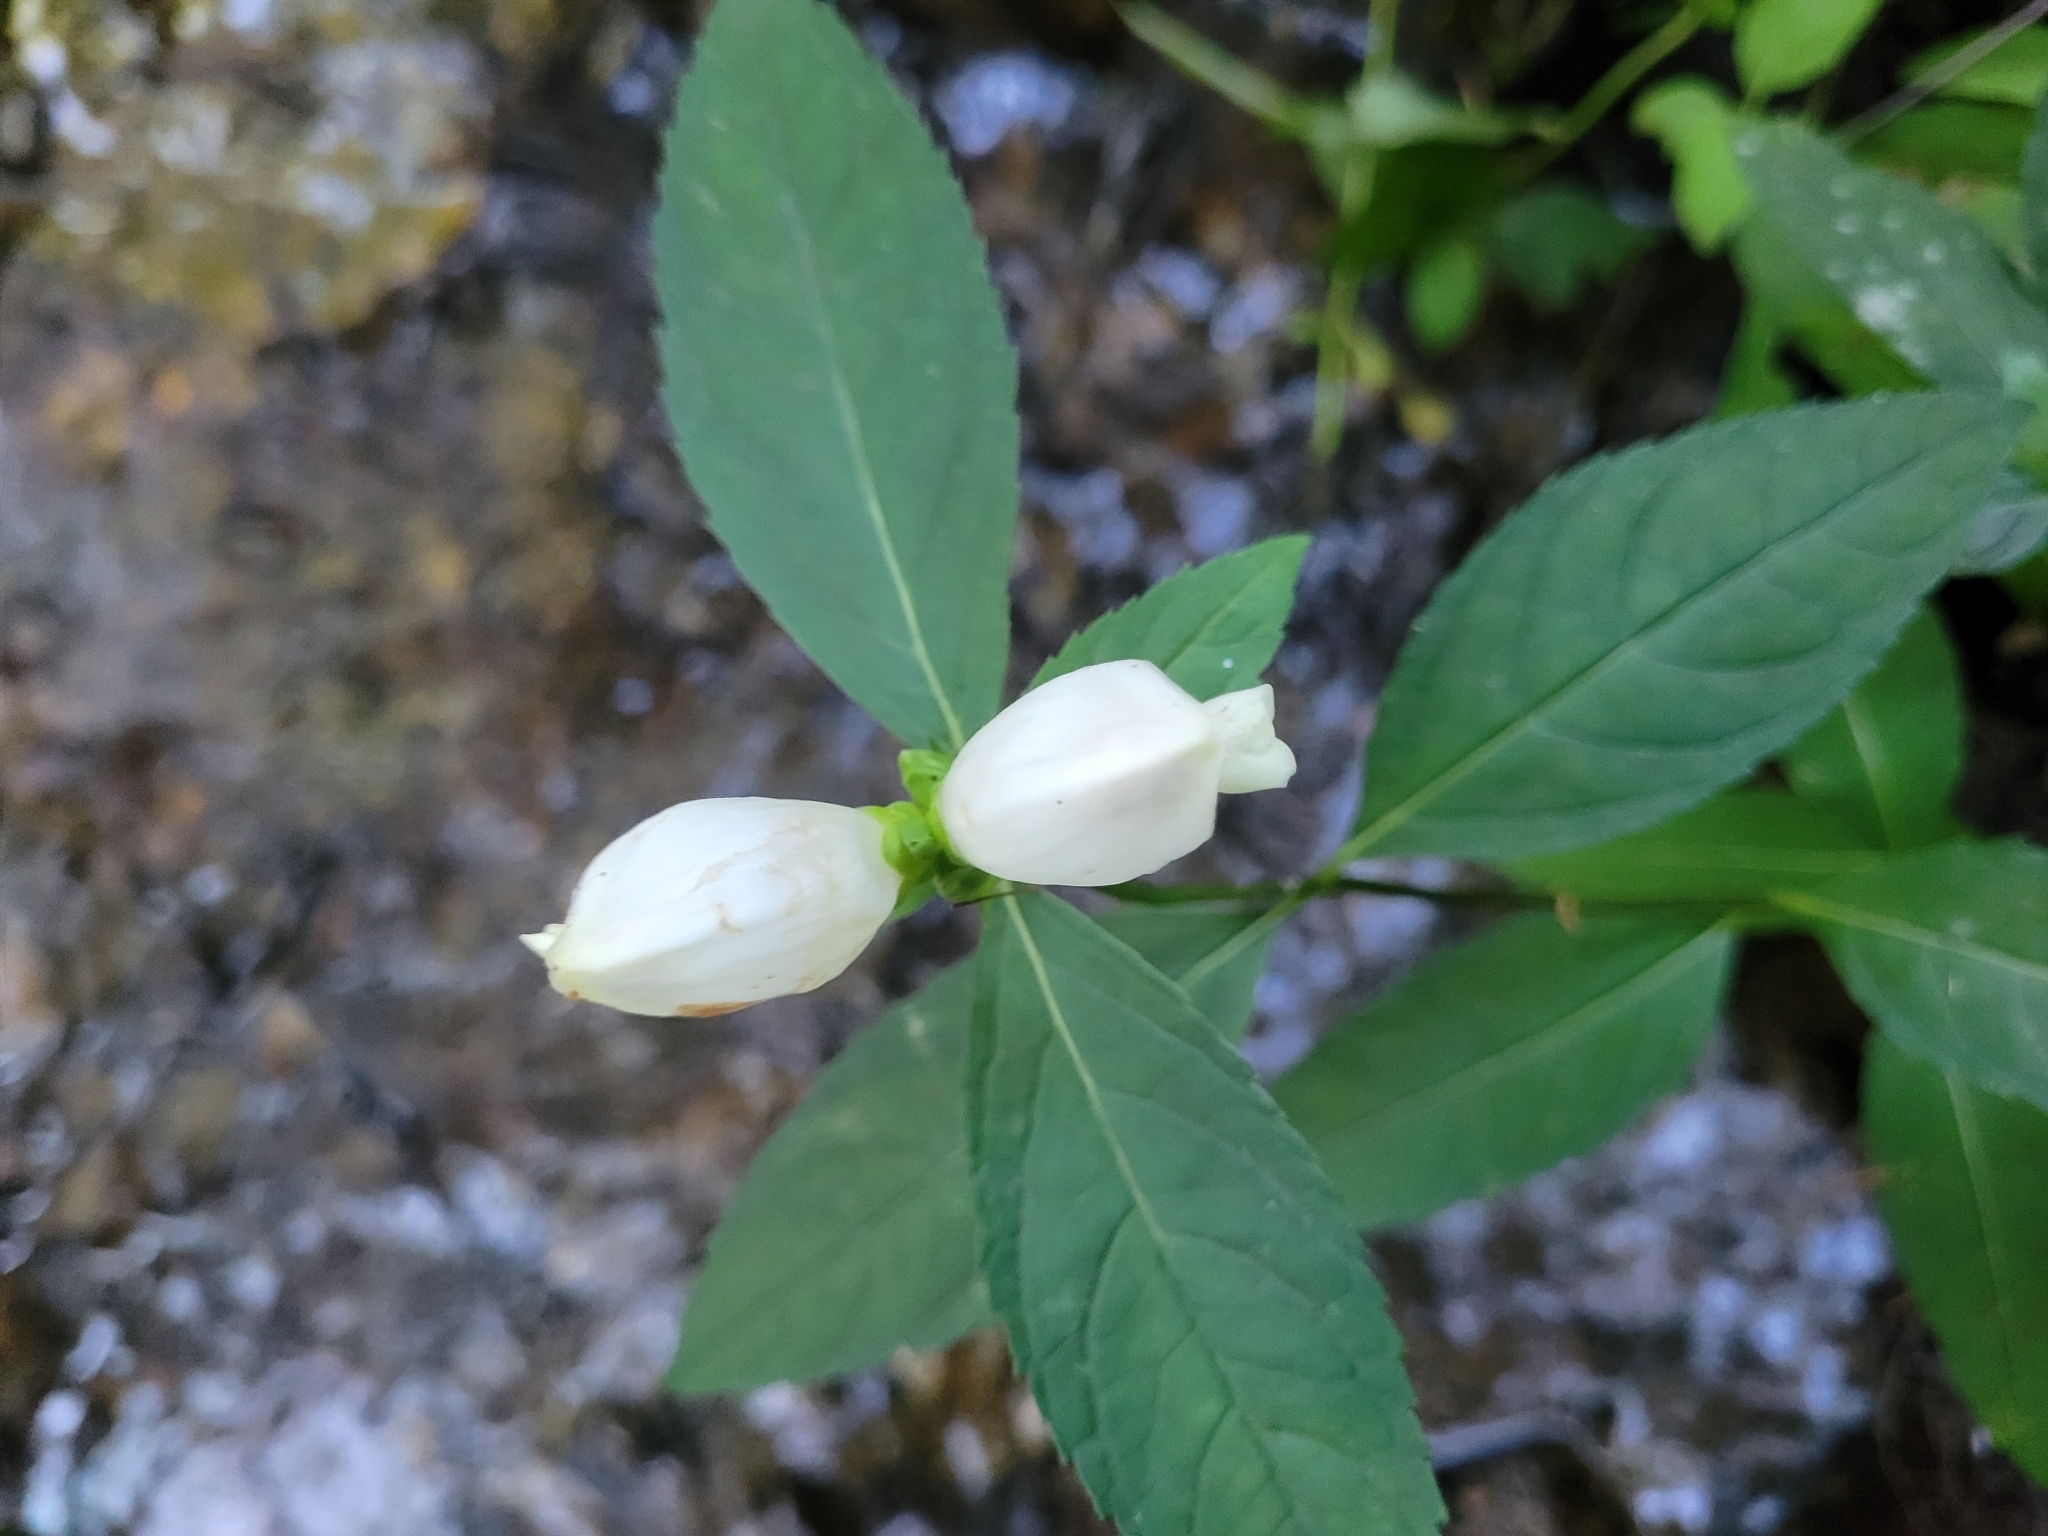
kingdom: Plantae
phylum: Tracheophyta
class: Magnoliopsida
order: Lamiales
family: Plantaginaceae
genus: Chelone
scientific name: Chelone glabra
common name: Snakehead
